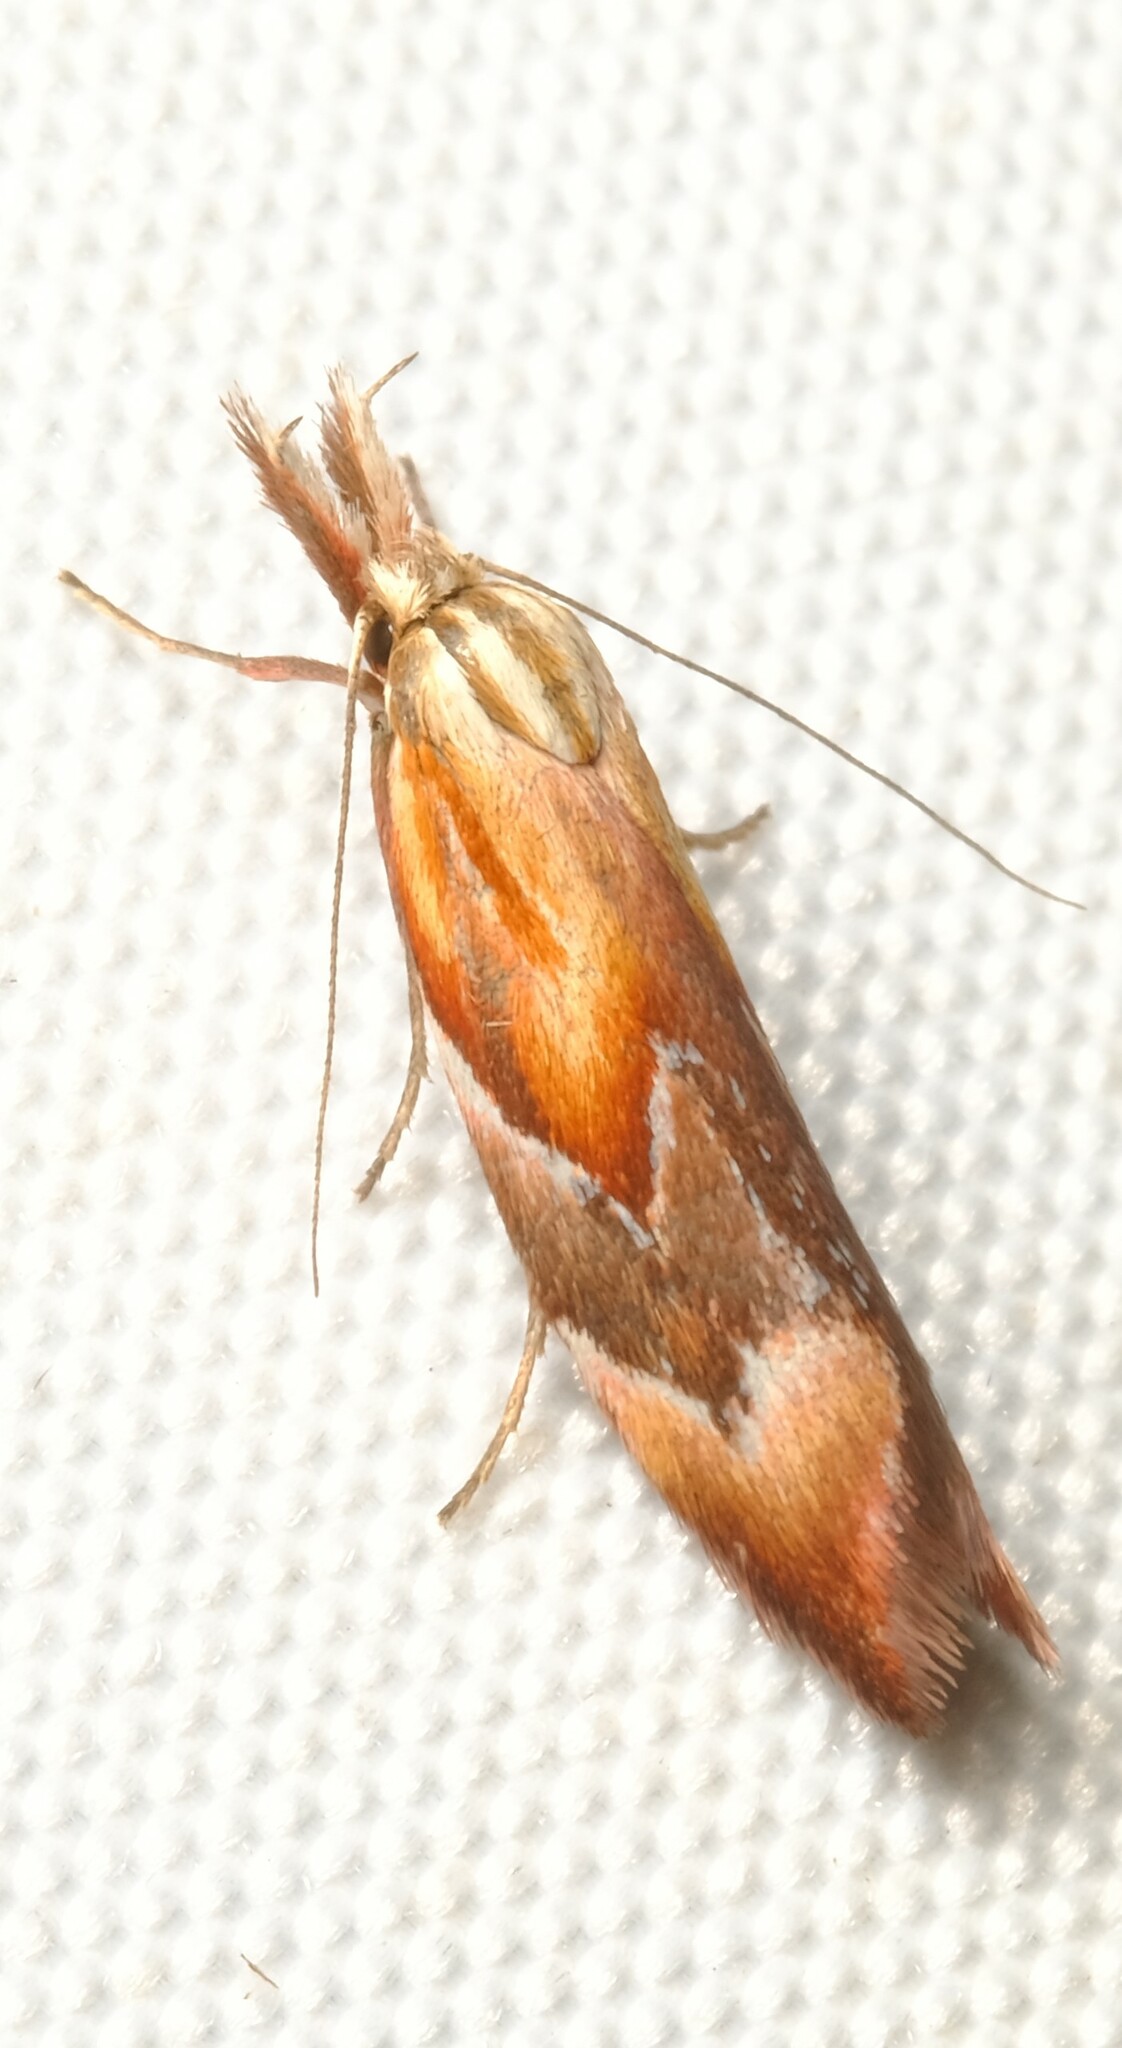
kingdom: Animalia
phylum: Arthropoda
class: Insecta
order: Lepidoptera
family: Oecophoridae
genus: Deigmoesta
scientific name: Deigmoesta lithocosma
